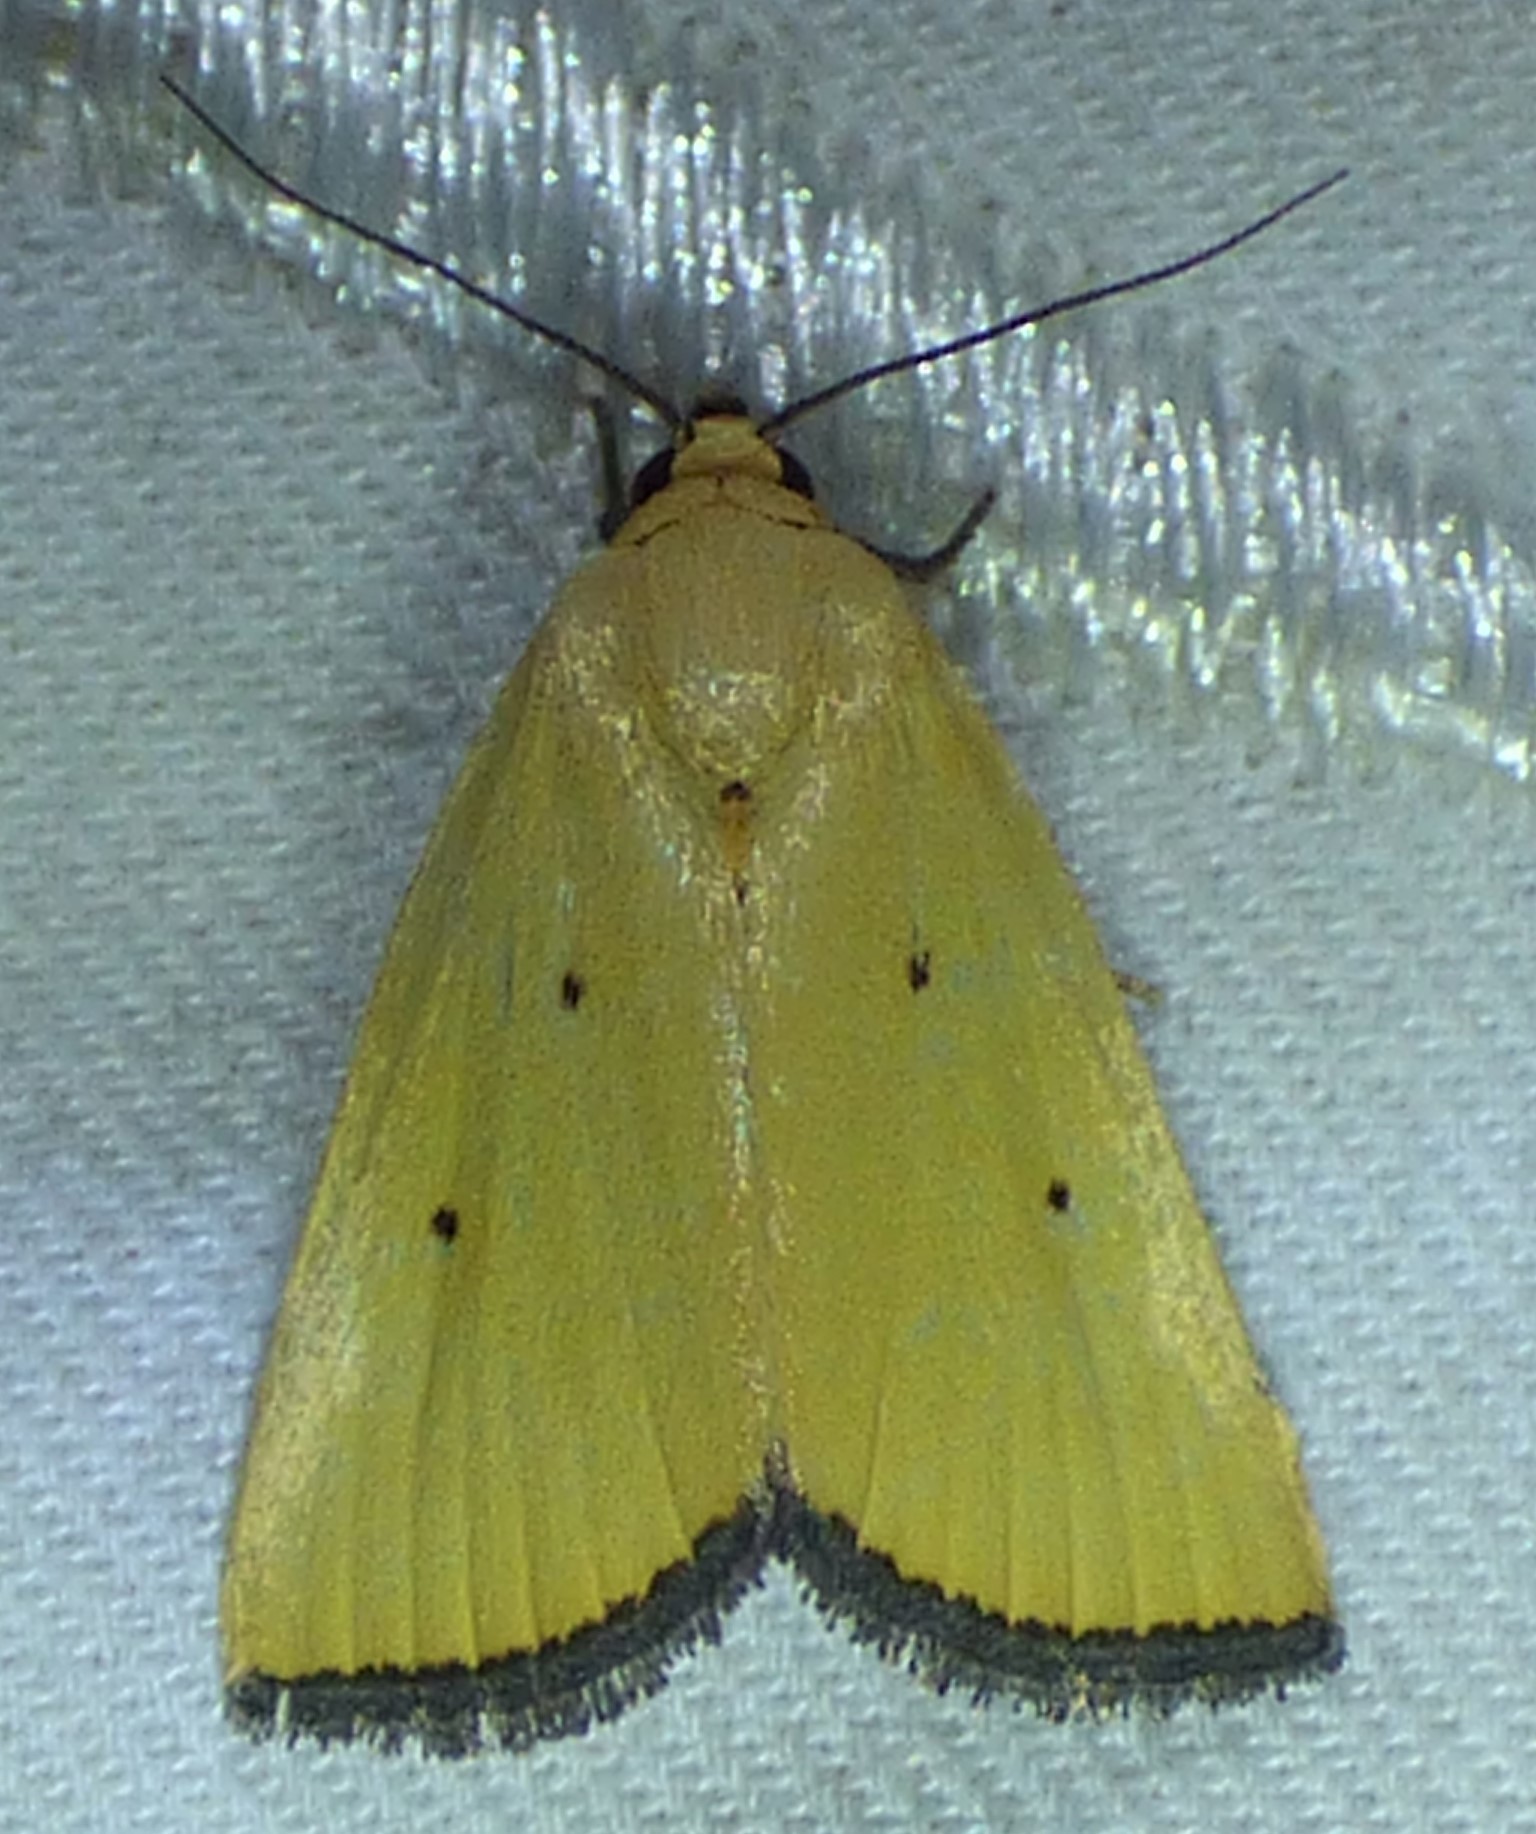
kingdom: Animalia
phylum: Arthropoda
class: Insecta
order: Lepidoptera
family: Noctuidae
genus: Marimatha
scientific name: Marimatha nigrofimbria
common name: Black-bordered lemon moth
